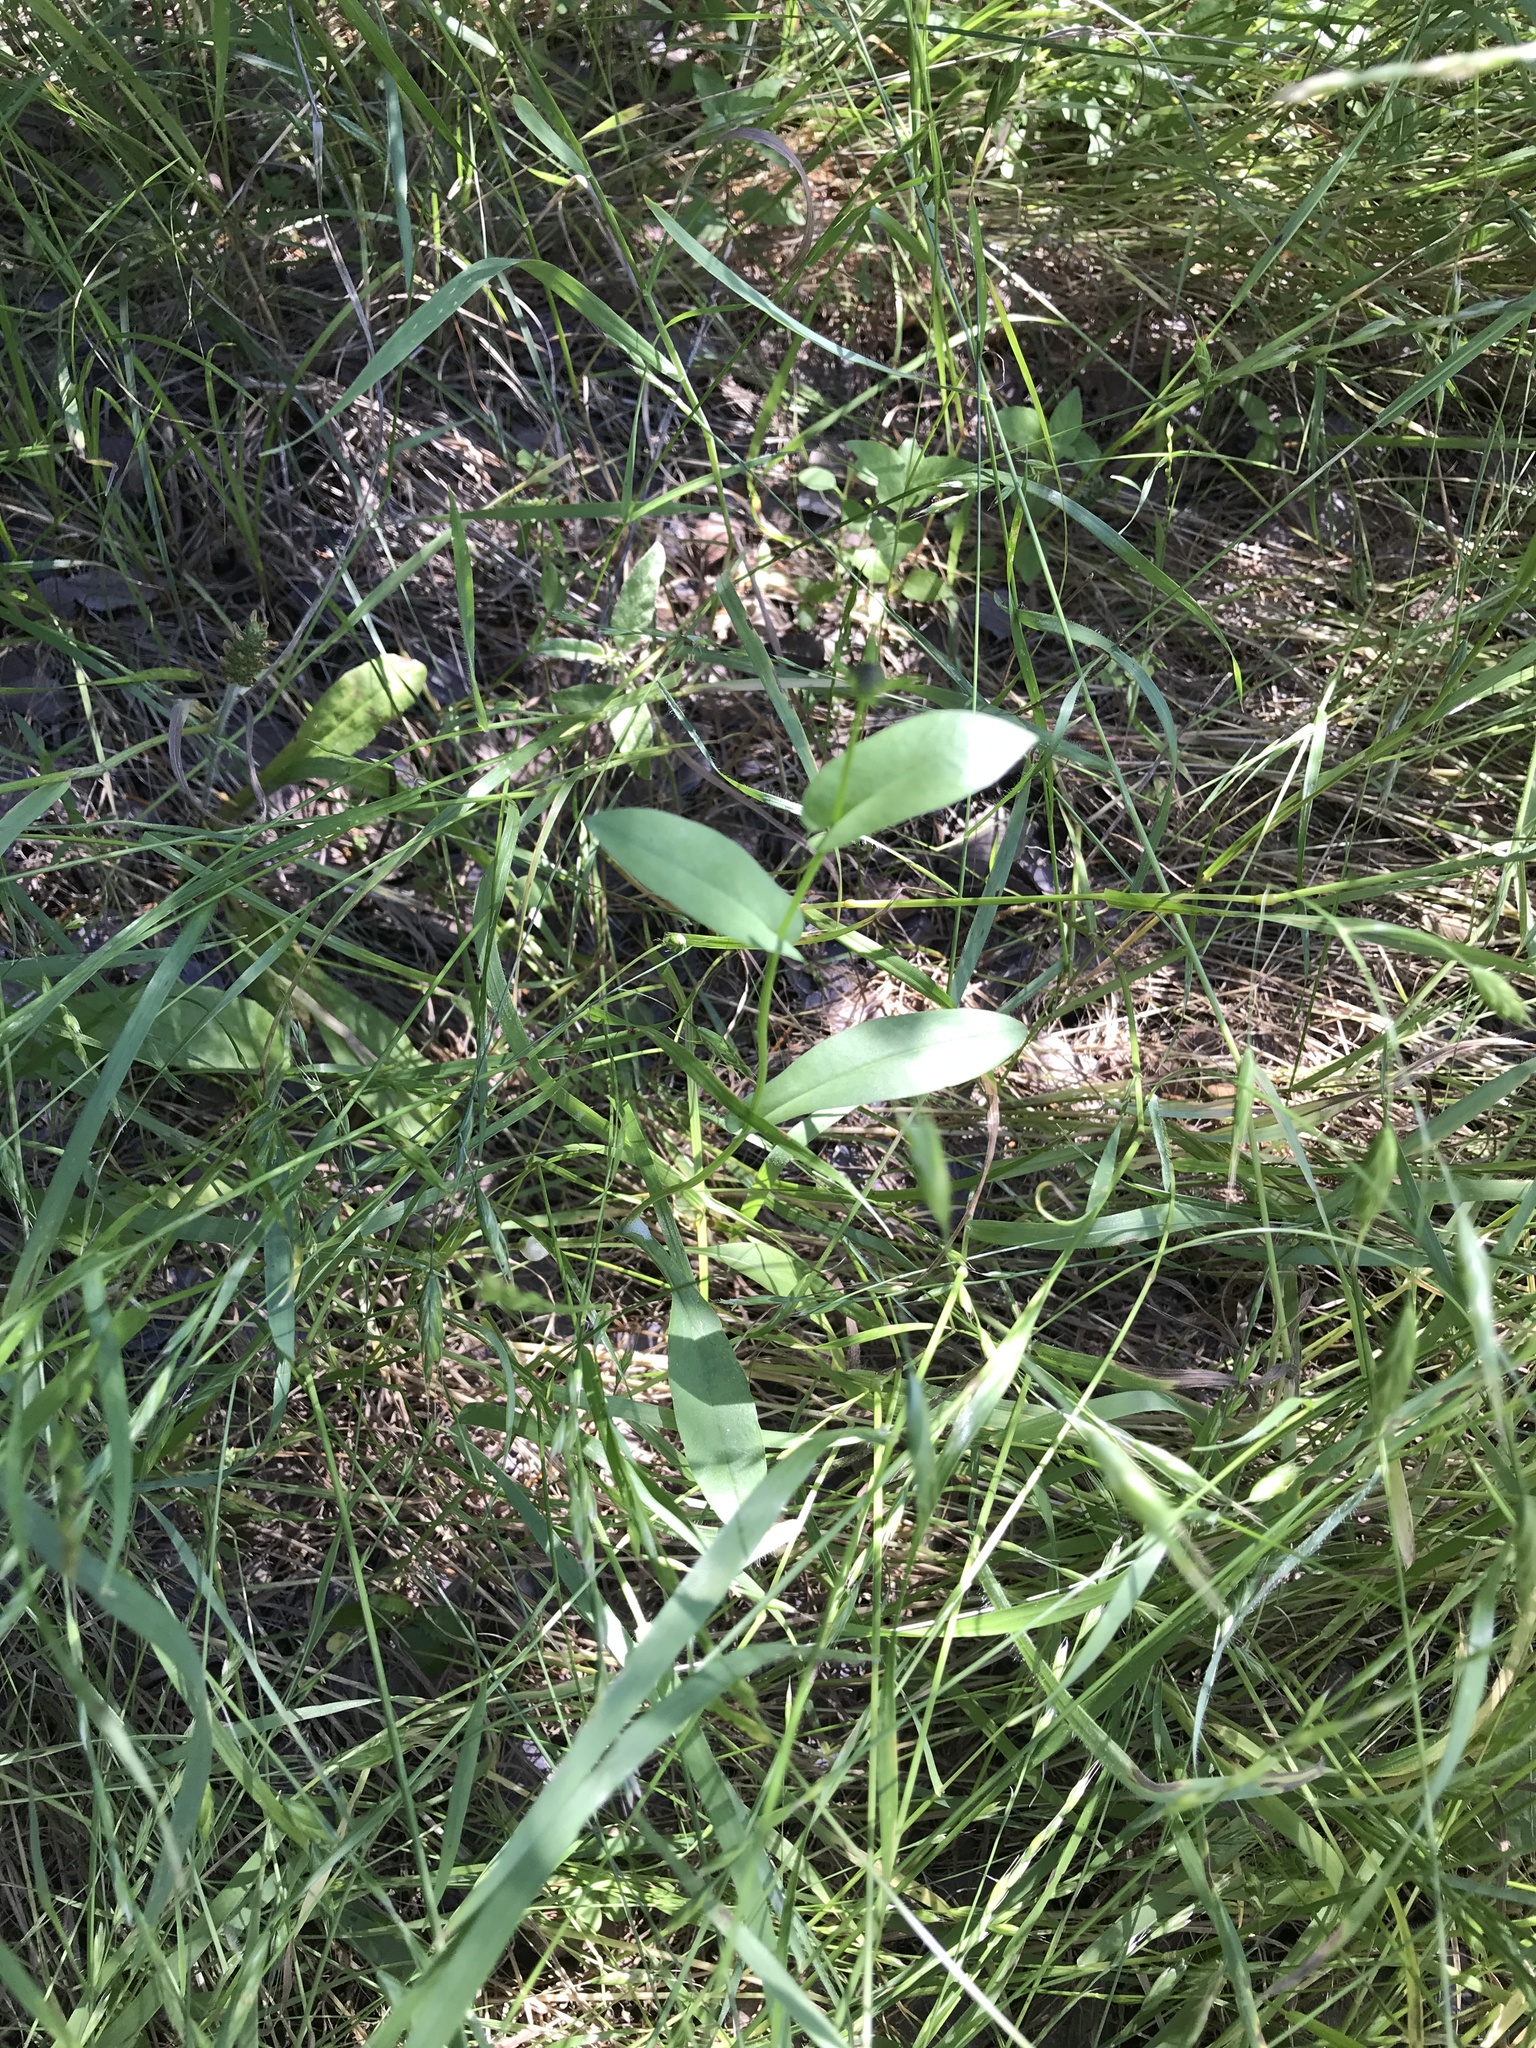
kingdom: Plantae
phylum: Tracheophyta
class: Magnoliopsida
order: Asterales
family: Asteraceae
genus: Rudbeckia
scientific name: Rudbeckia amplexicaulis
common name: Clasping-leaf coneflower
